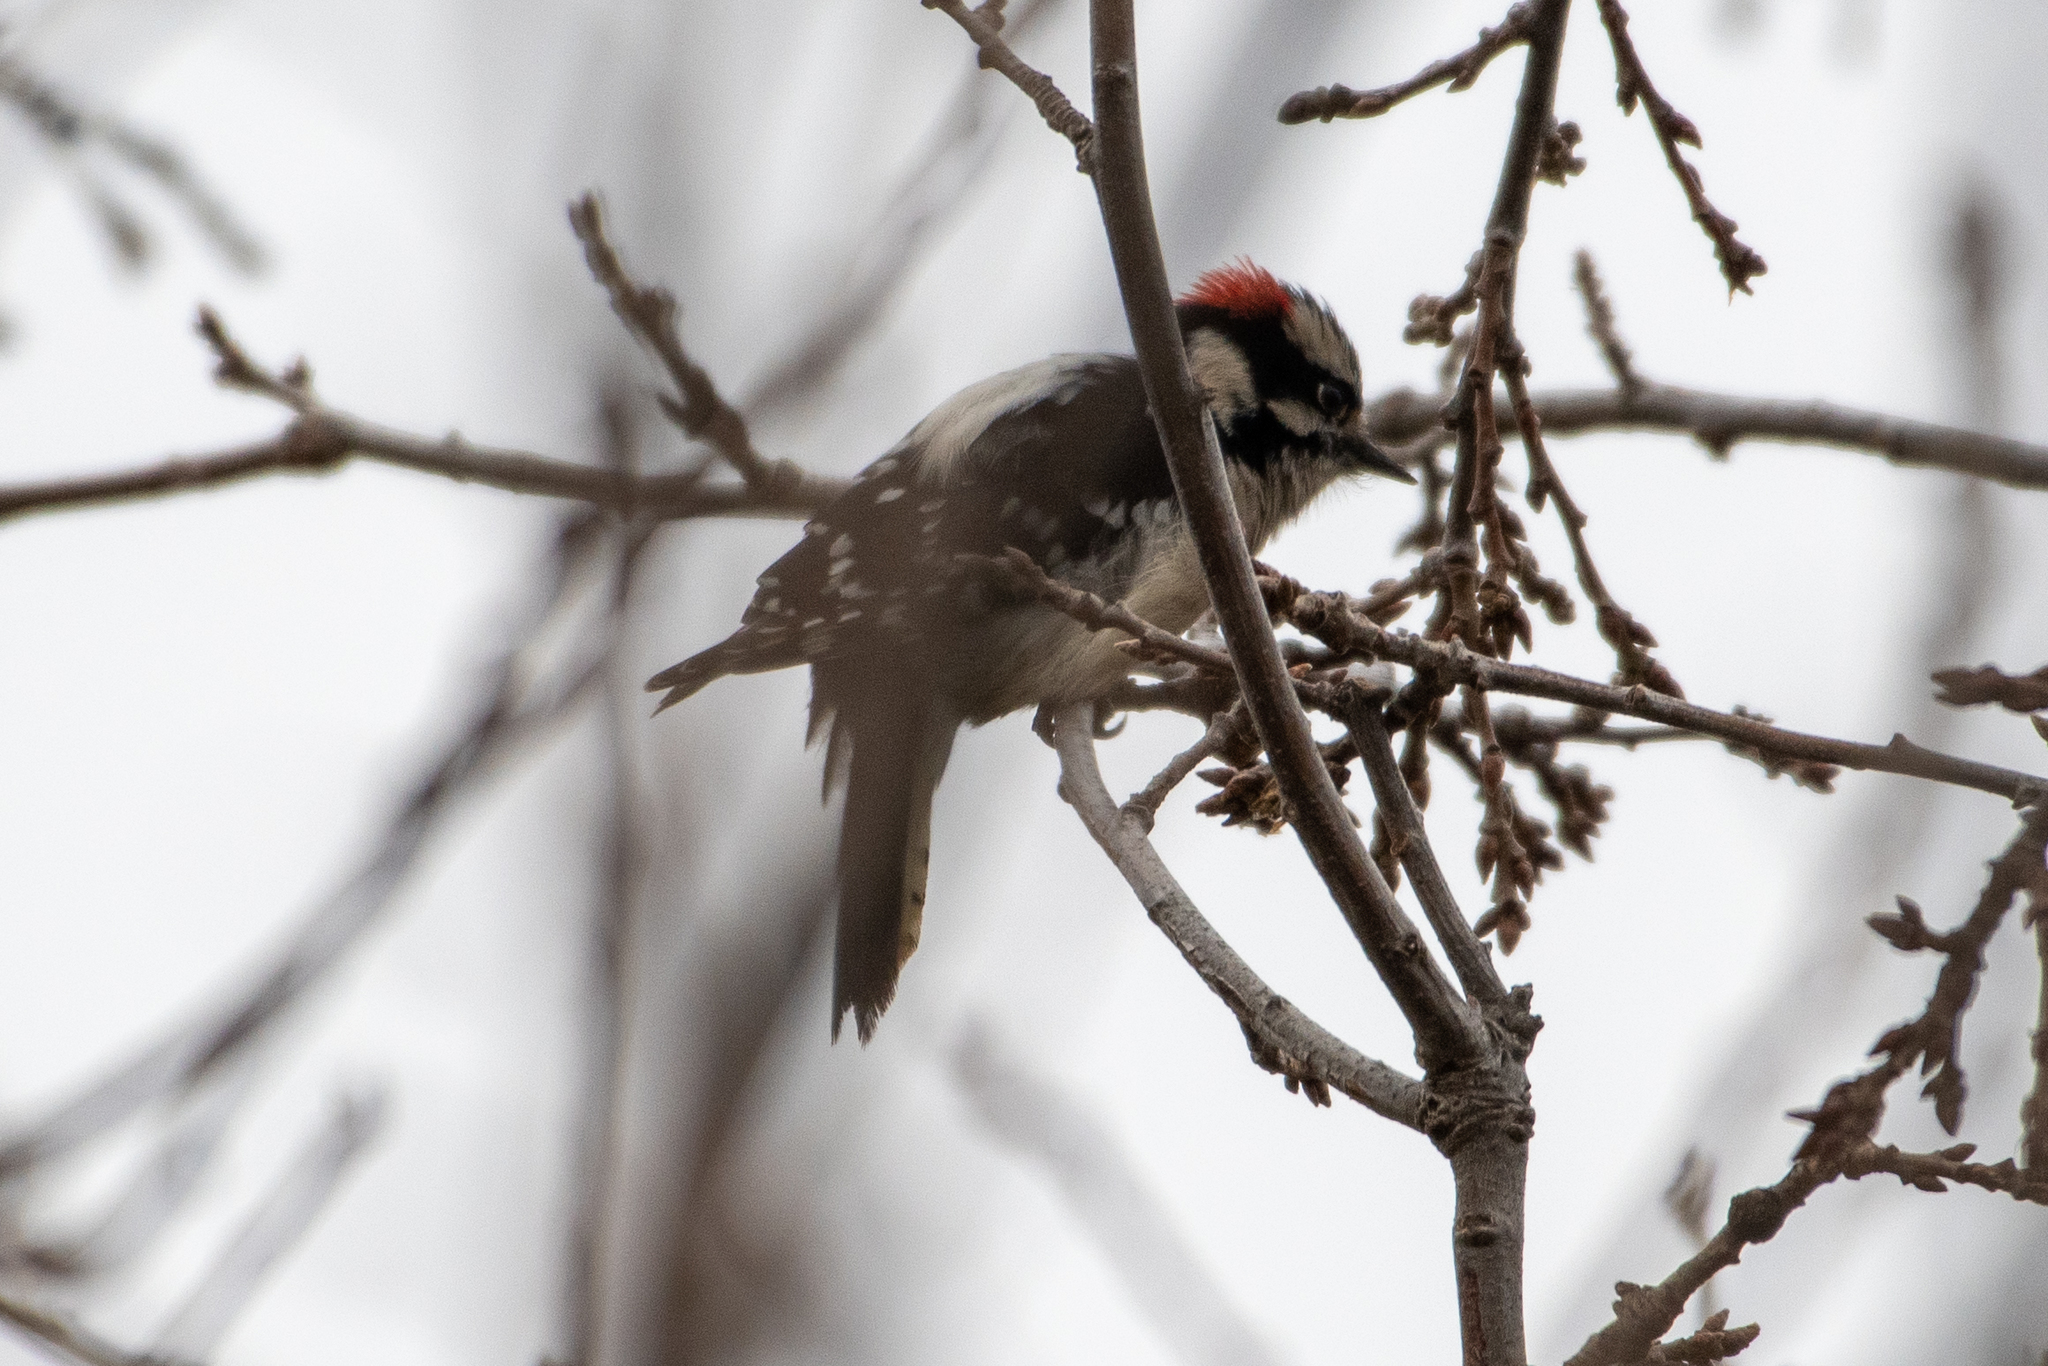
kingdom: Animalia
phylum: Chordata
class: Aves
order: Piciformes
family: Picidae
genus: Dryobates
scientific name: Dryobates pubescens
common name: Downy woodpecker
